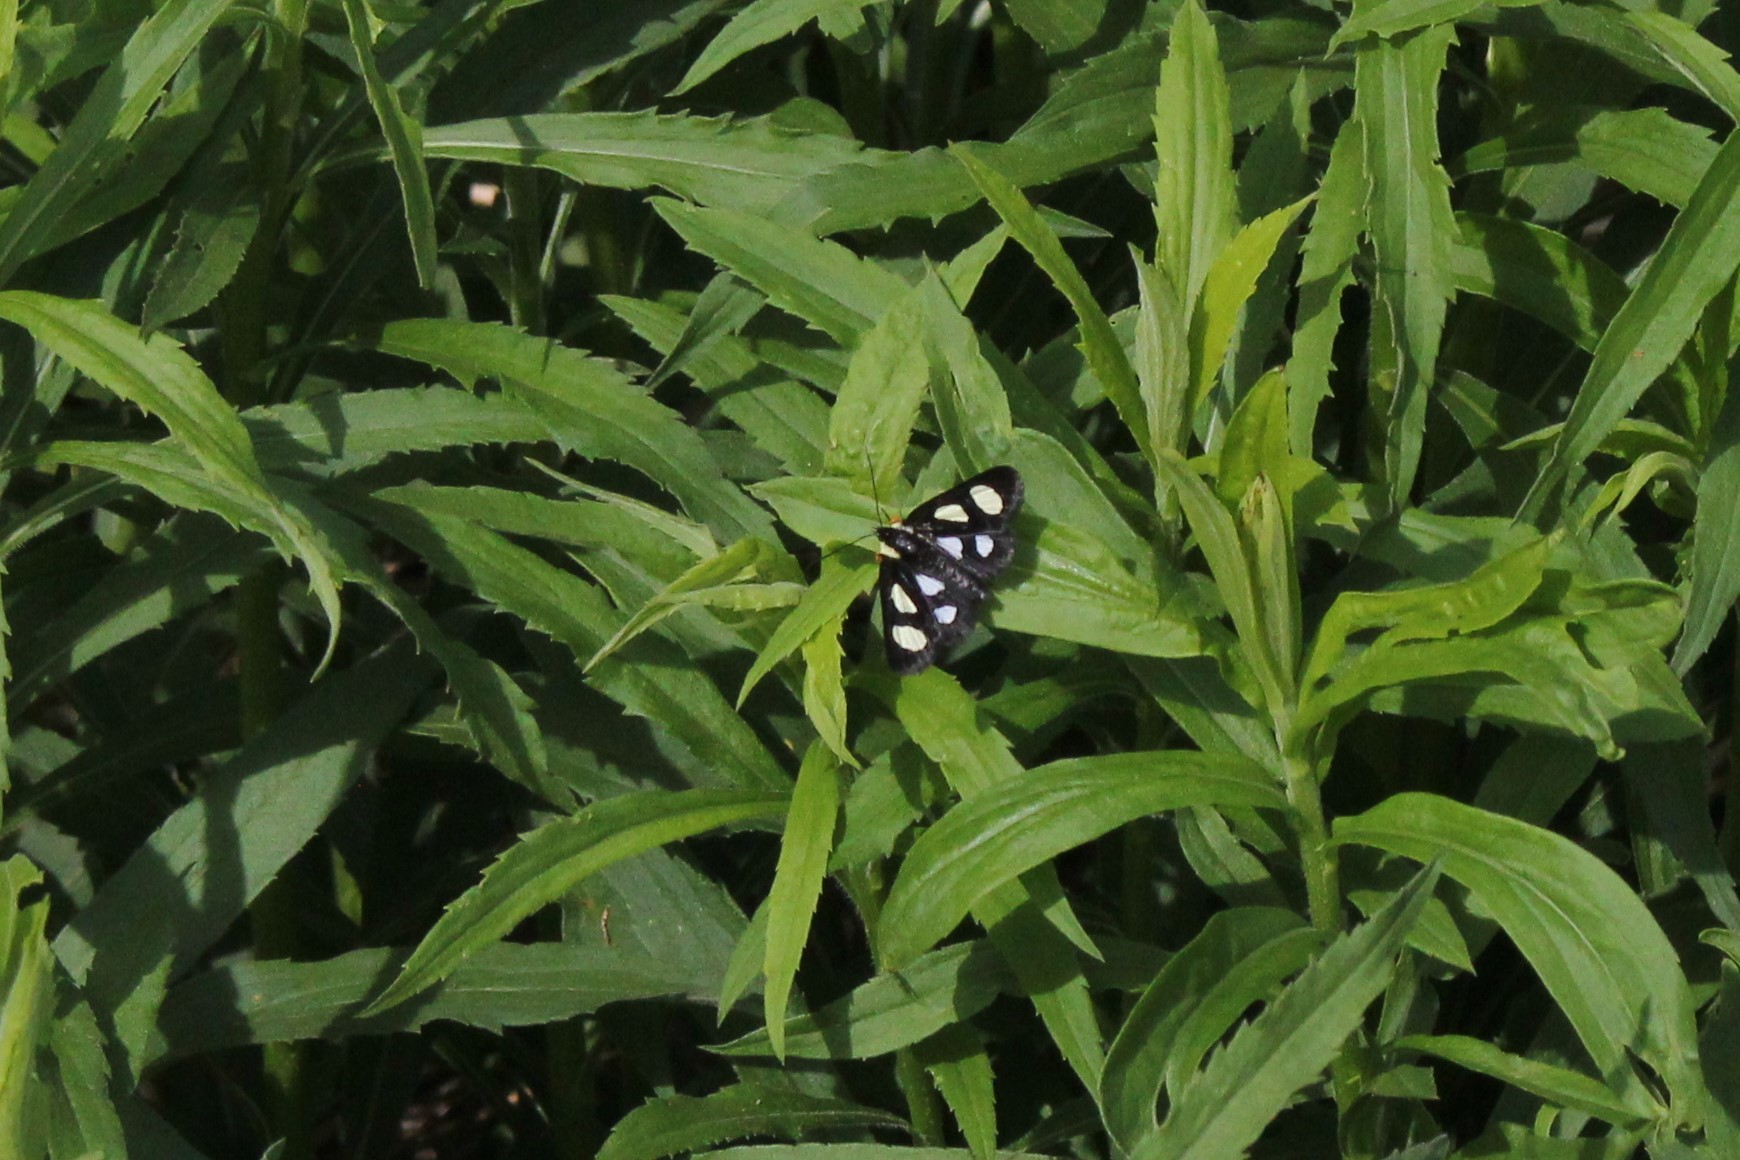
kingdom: Animalia
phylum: Arthropoda
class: Insecta
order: Lepidoptera
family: Noctuidae
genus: Alypia
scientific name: Alypia octomaculata
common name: Eight-spotted forester
